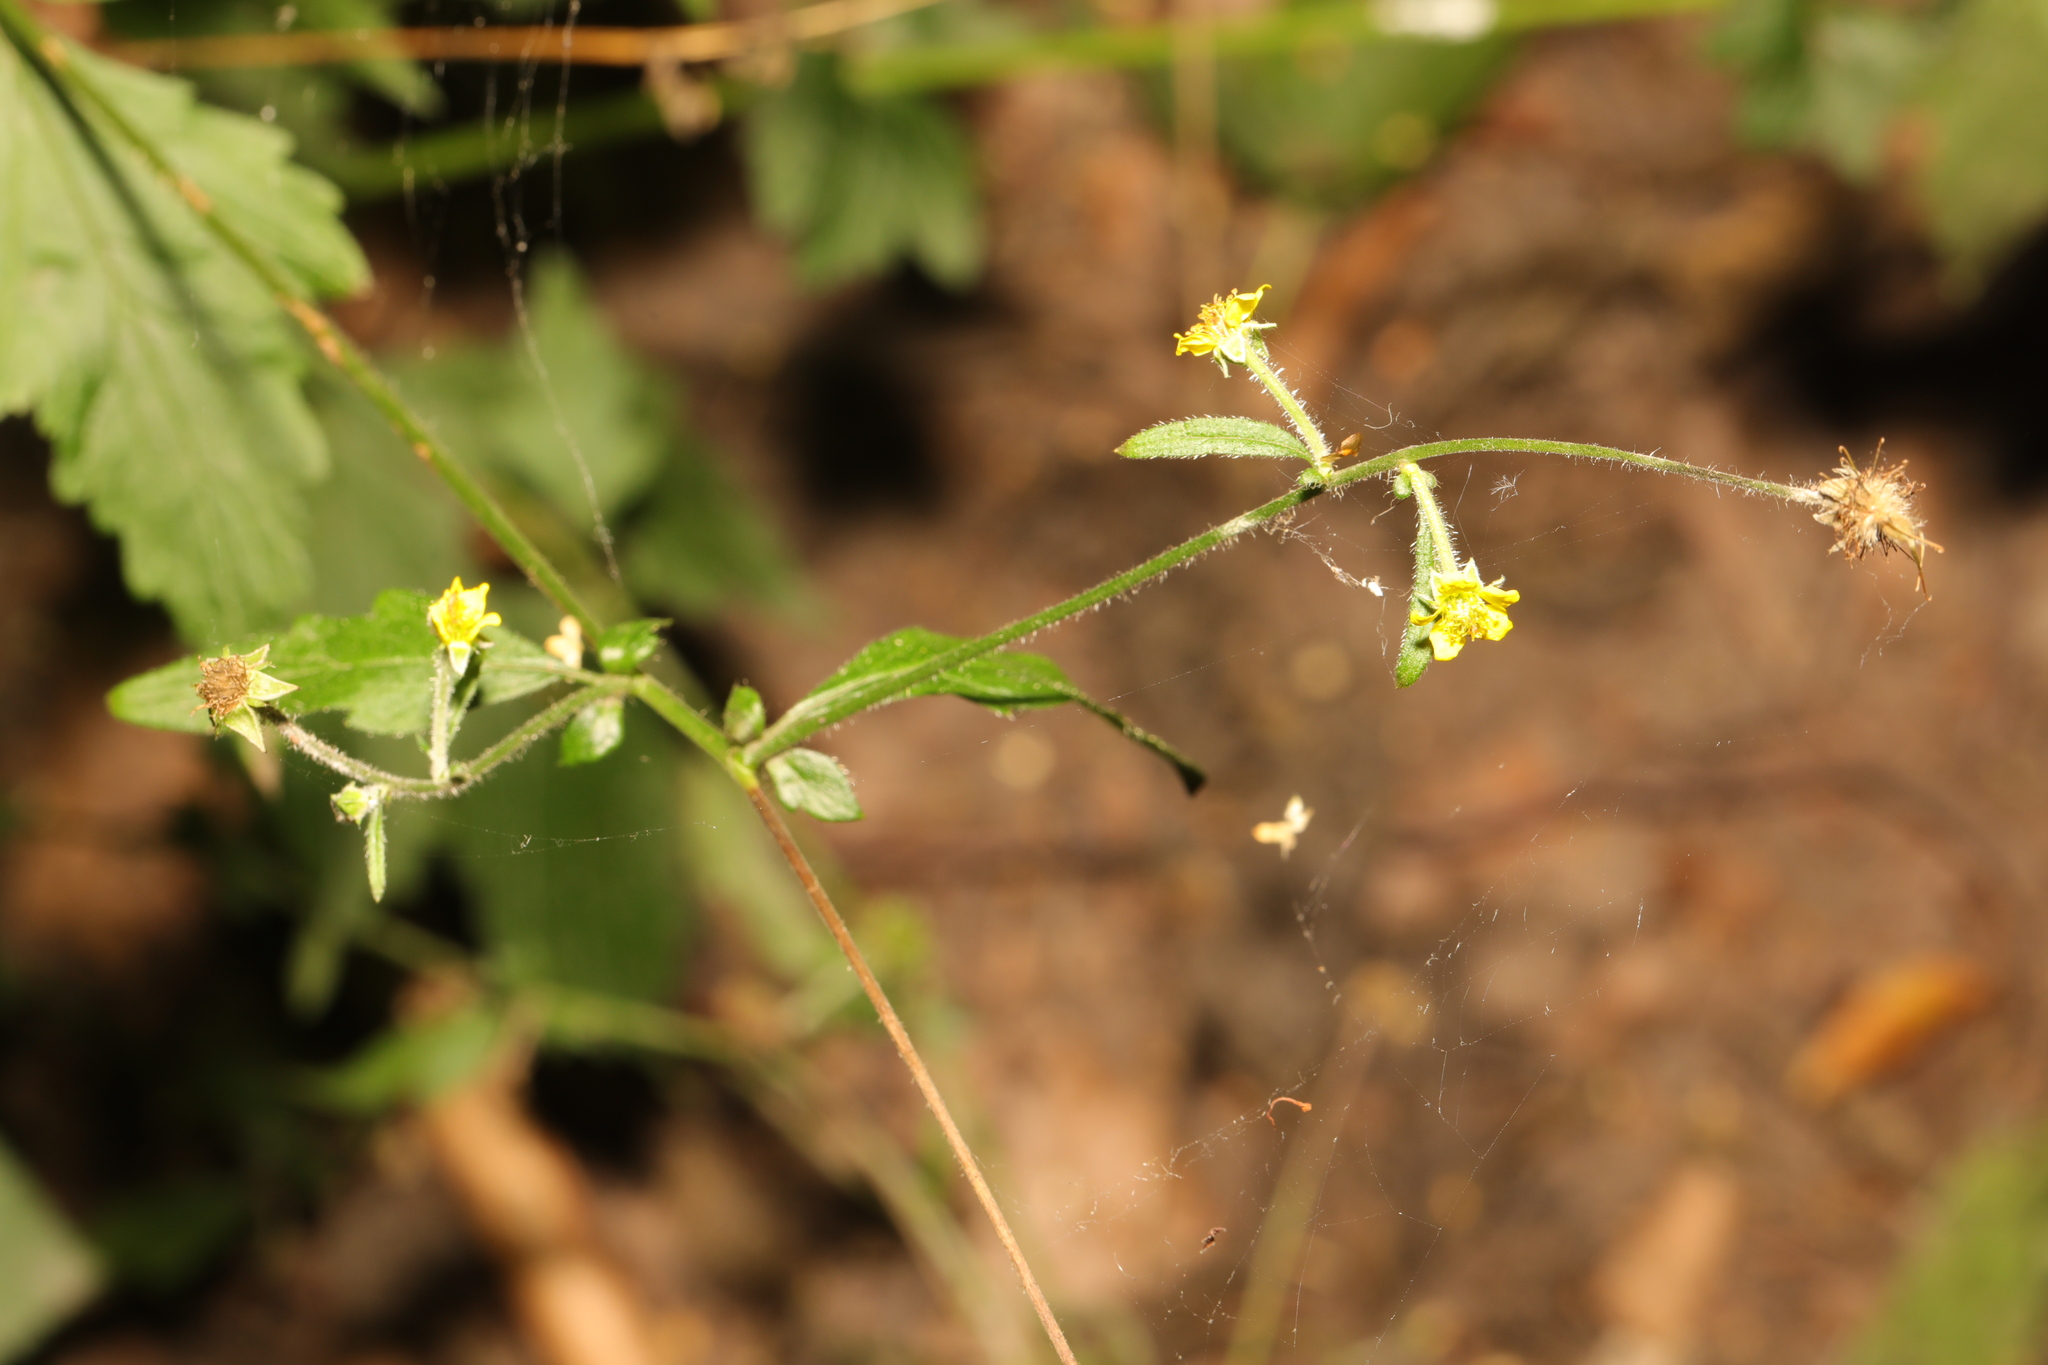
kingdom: Plantae
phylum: Tracheophyta
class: Magnoliopsida
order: Rosales
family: Rosaceae
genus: Geum
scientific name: Geum urbanum
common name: Wood avens
